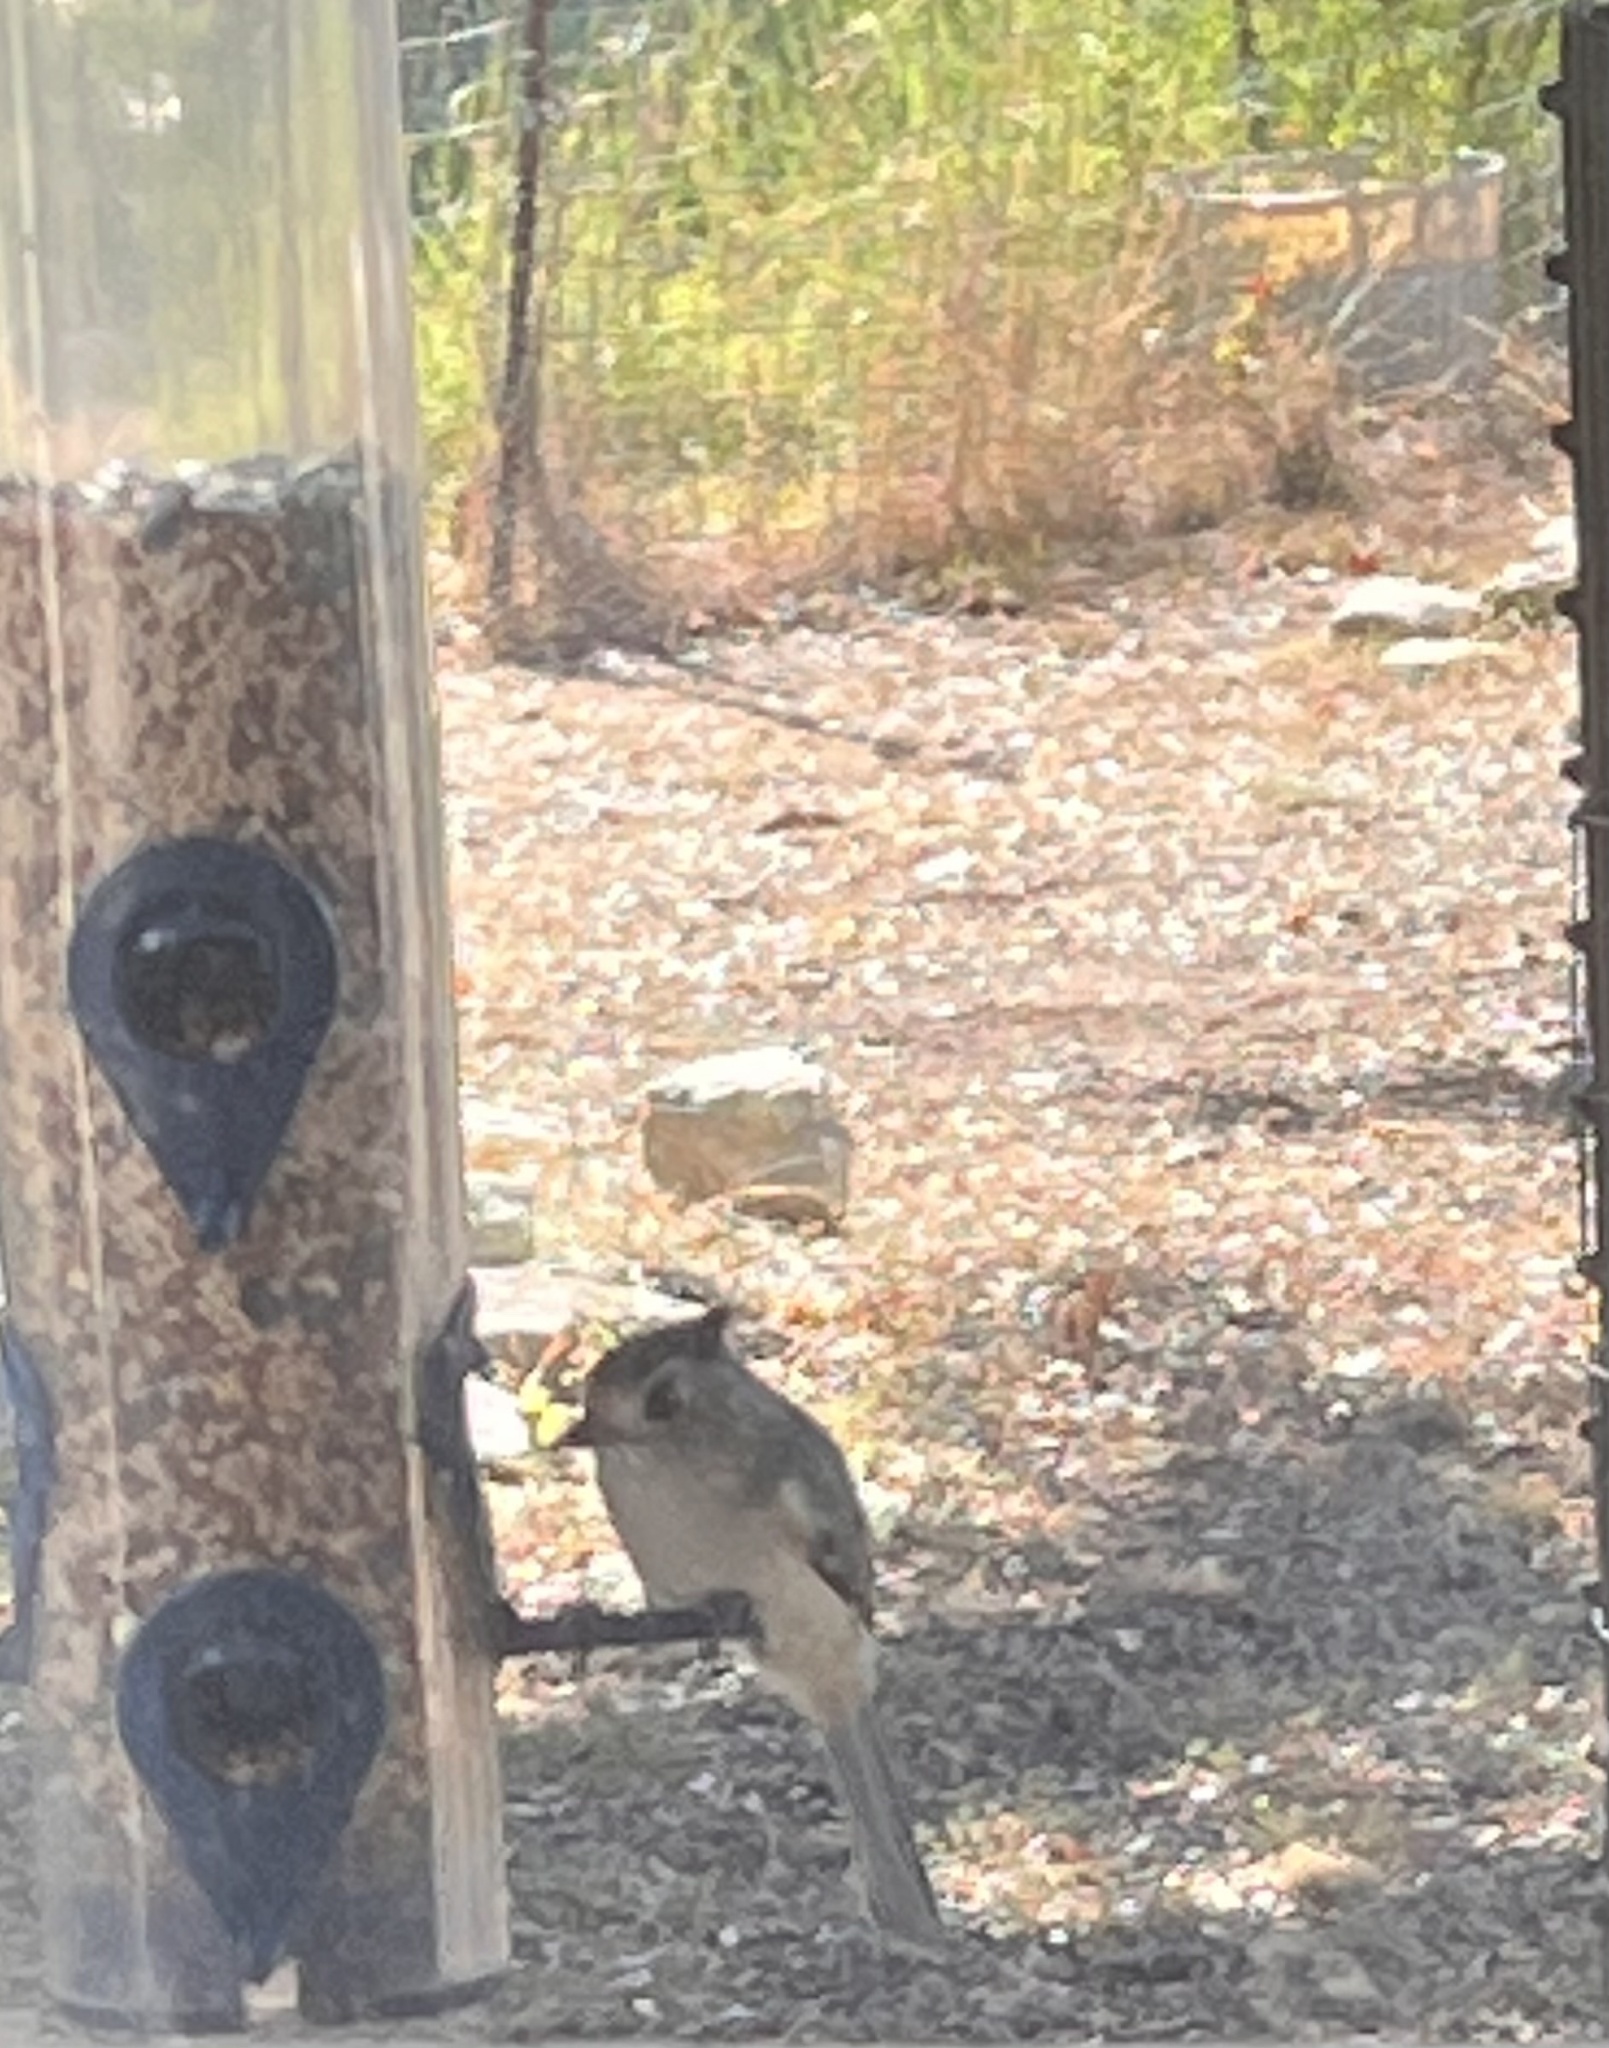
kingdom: Animalia
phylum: Chordata
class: Aves
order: Passeriformes
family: Paridae
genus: Baeolophus
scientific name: Baeolophus atricristatus
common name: Black-crested titmouse
